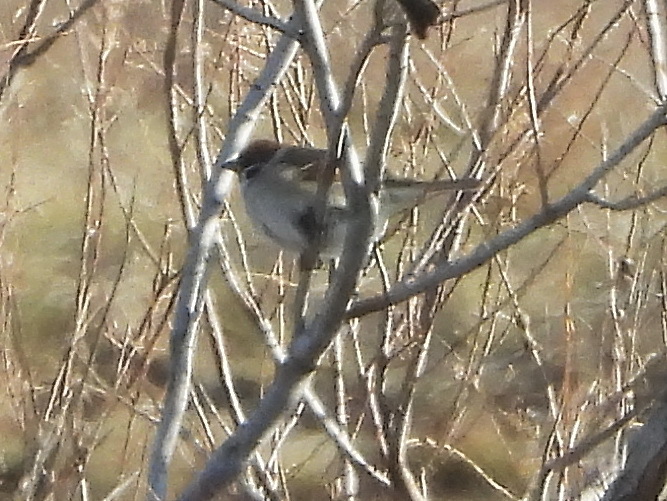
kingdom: Animalia
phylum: Chordata
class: Aves
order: Passeriformes
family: Passeridae
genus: Passer
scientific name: Passer montanus
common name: Eurasian tree sparrow
